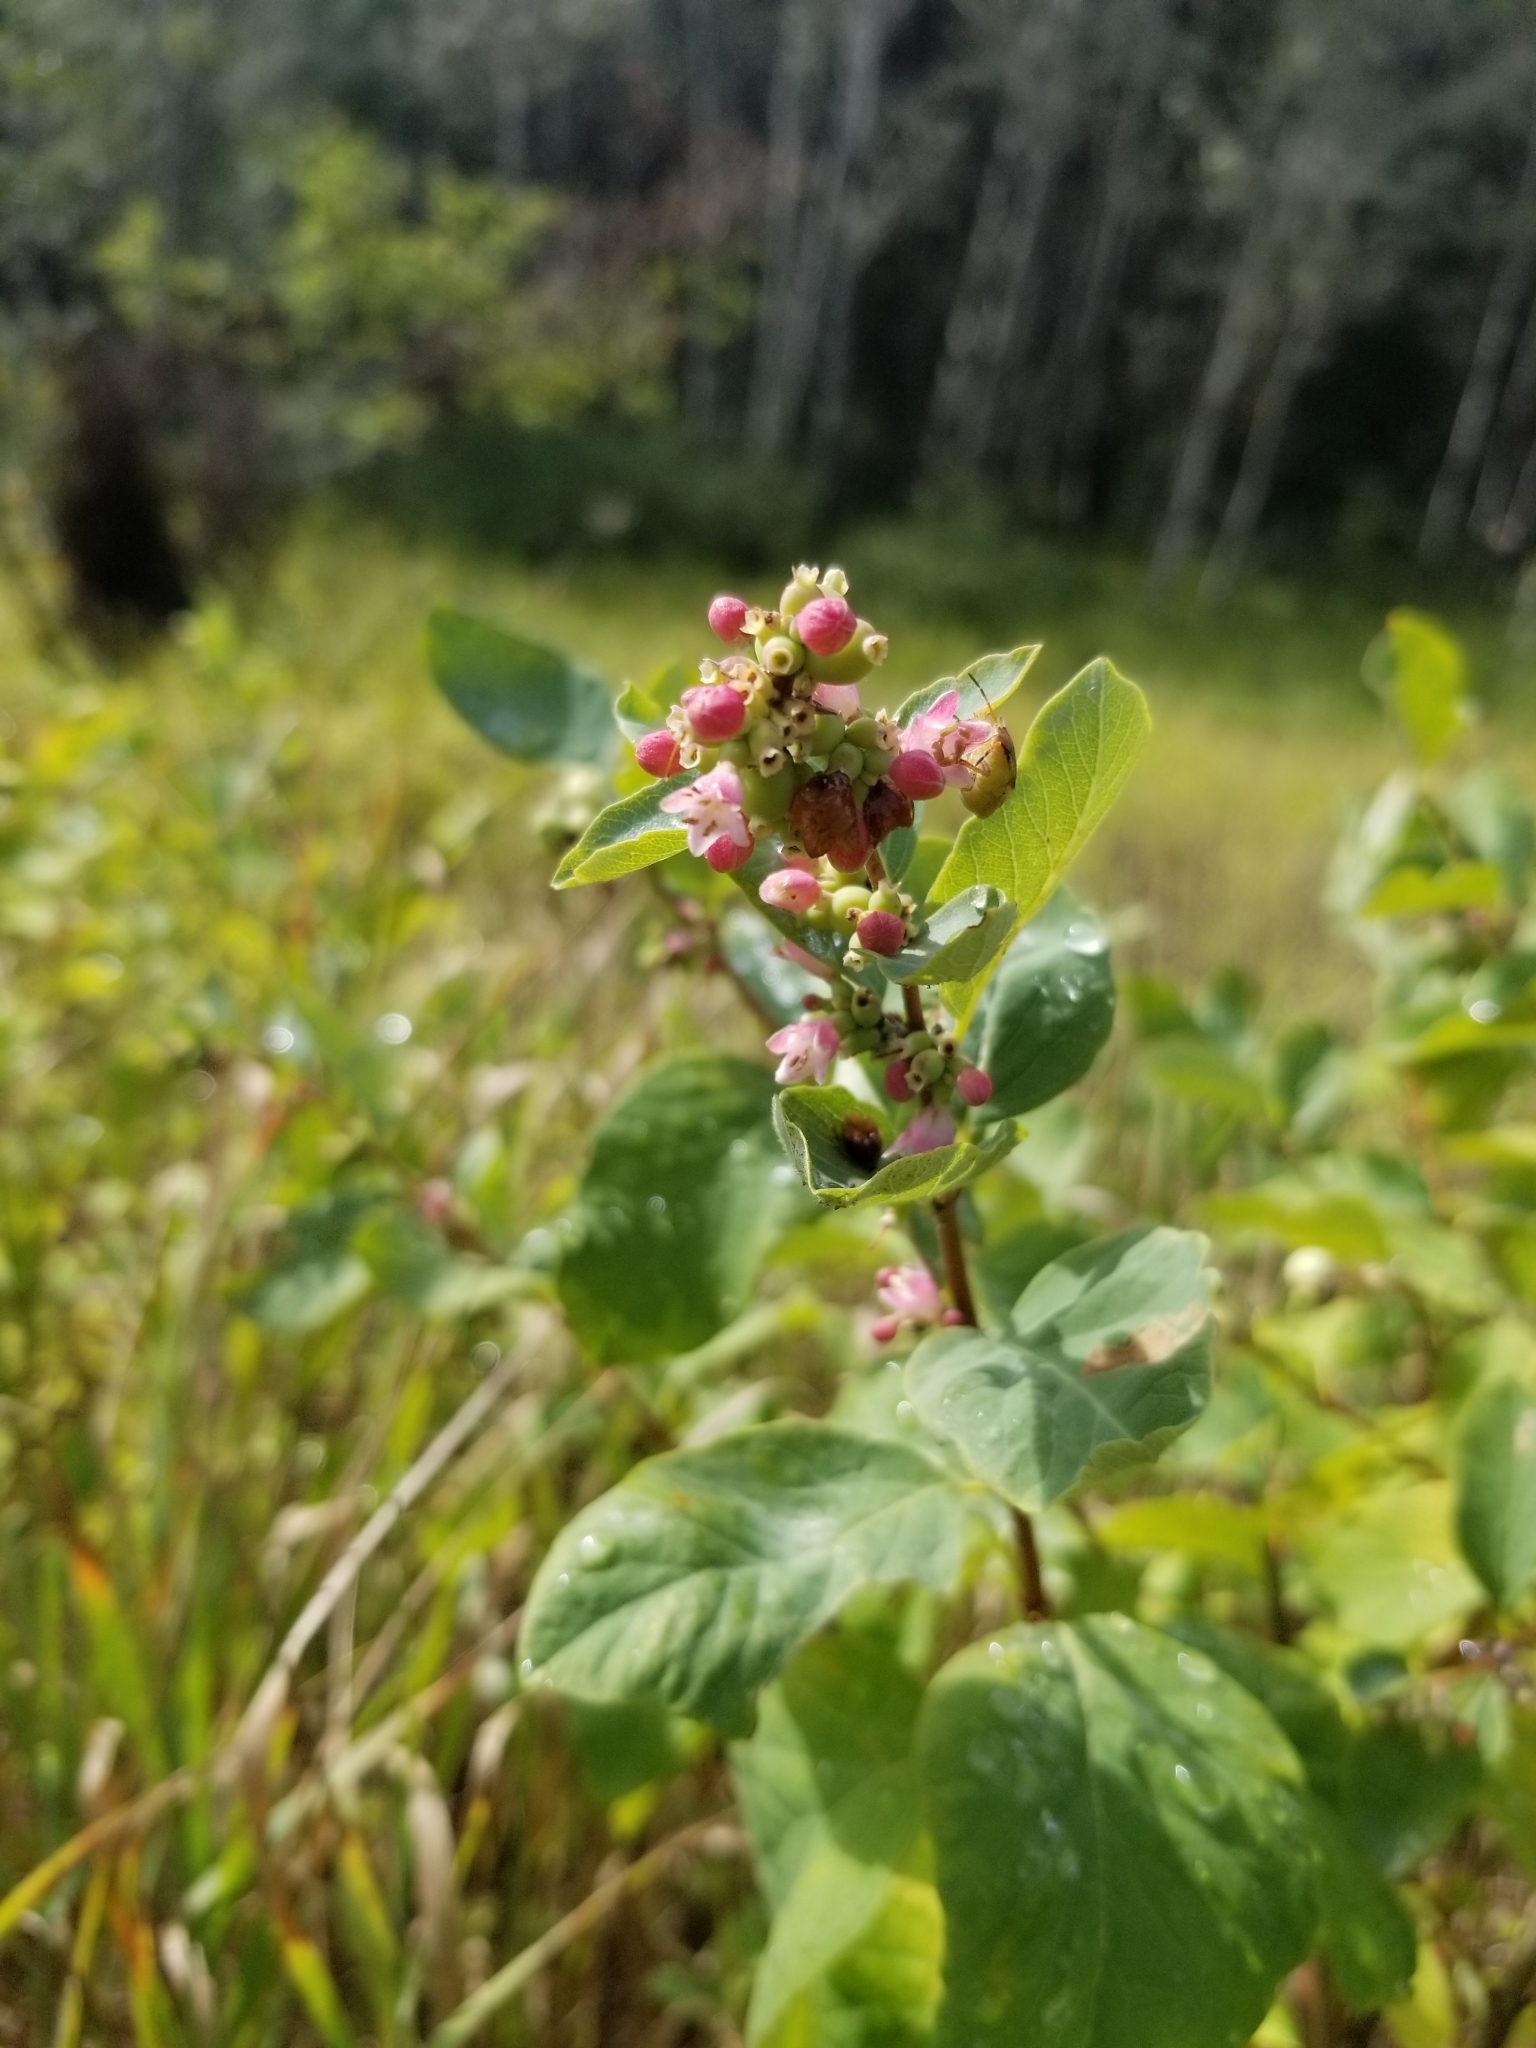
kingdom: Plantae
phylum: Tracheophyta
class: Magnoliopsida
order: Dipsacales
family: Caprifoliaceae
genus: Symphoricarpos
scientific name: Symphoricarpos albus
